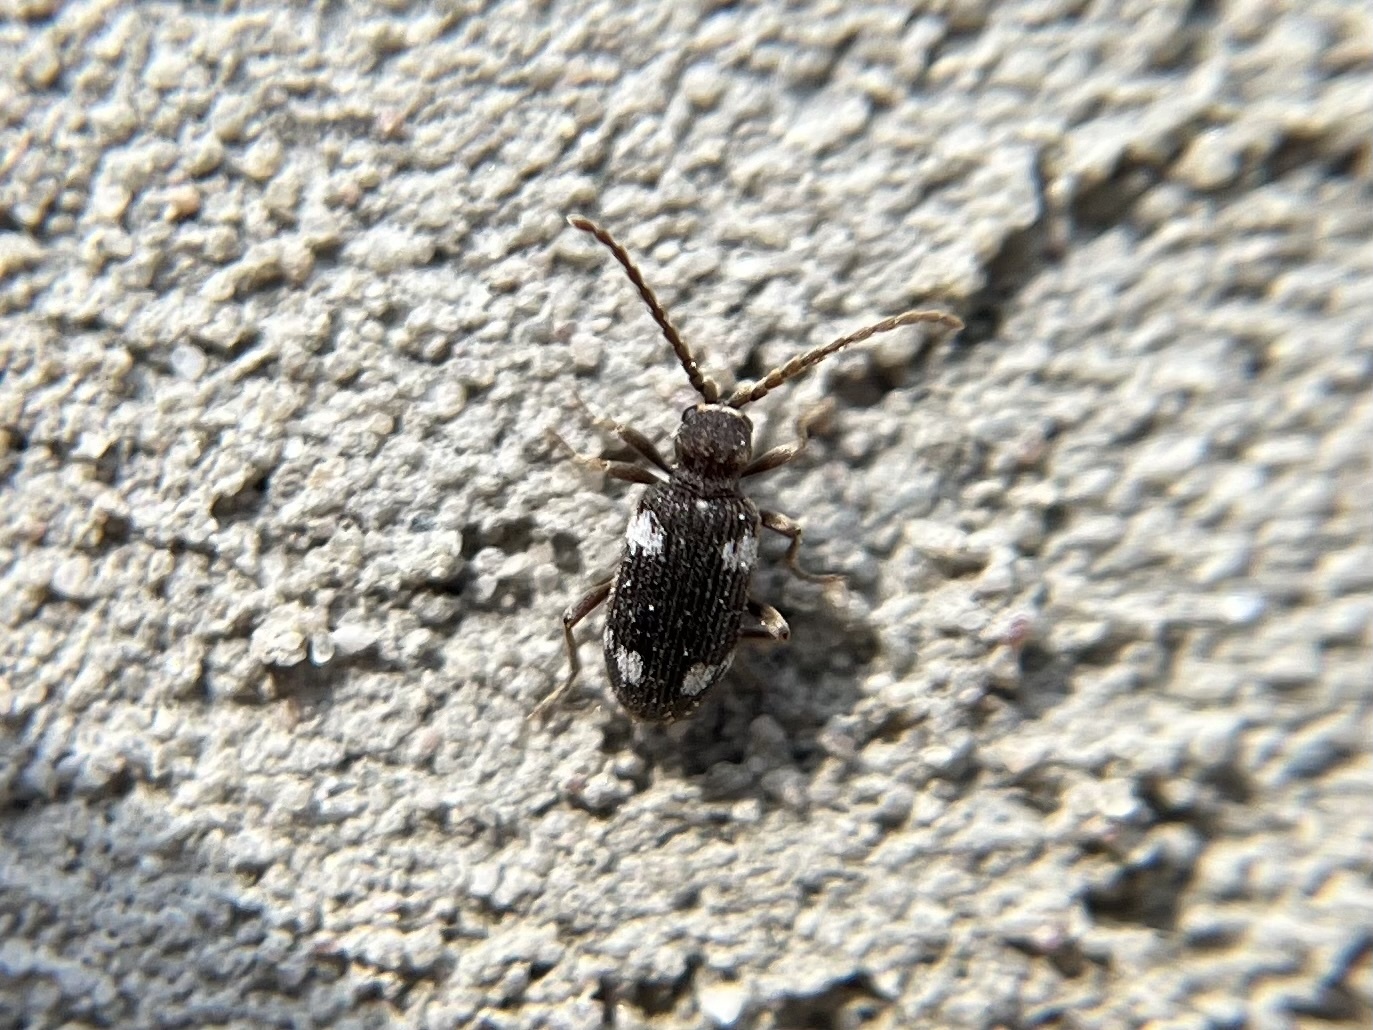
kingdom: Animalia
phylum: Arthropoda
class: Insecta
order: Coleoptera
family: Ptinidae
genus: Ptinus
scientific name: Ptinus sexpunctatus
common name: Six-spotted spider beetle
